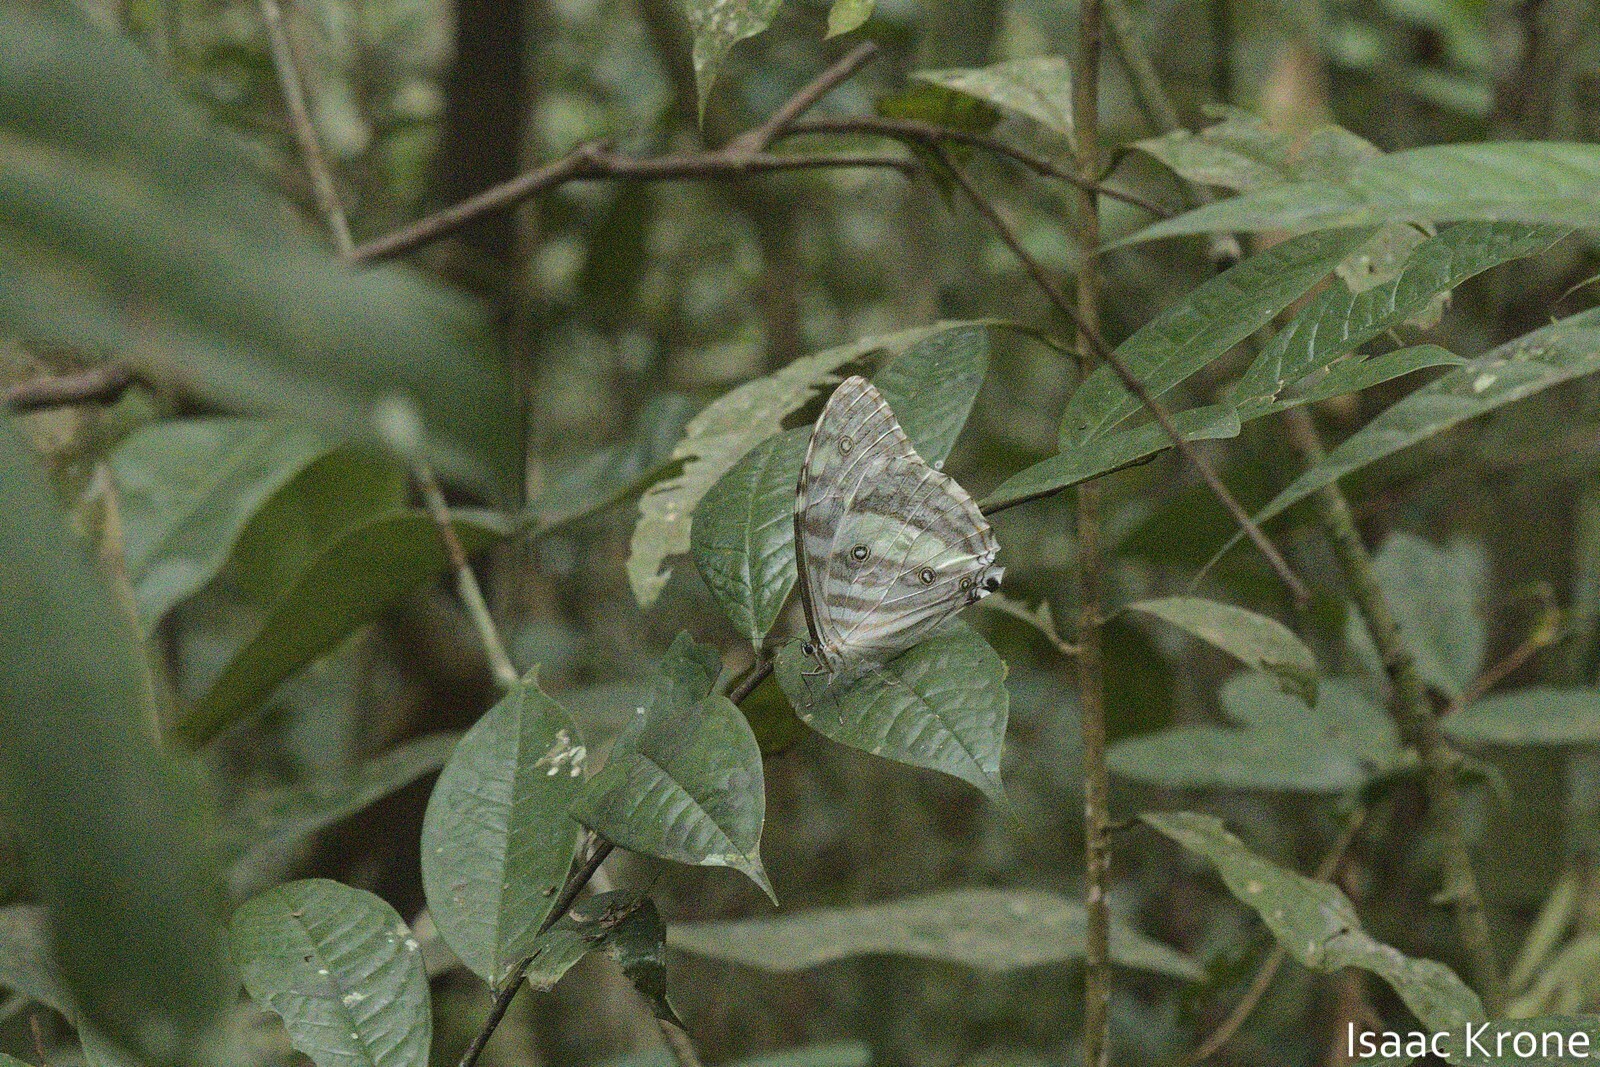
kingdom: Animalia
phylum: Arthropoda
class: Insecta
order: Lepidoptera
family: Nymphalidae
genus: Morpho
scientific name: Morpho eugenia
